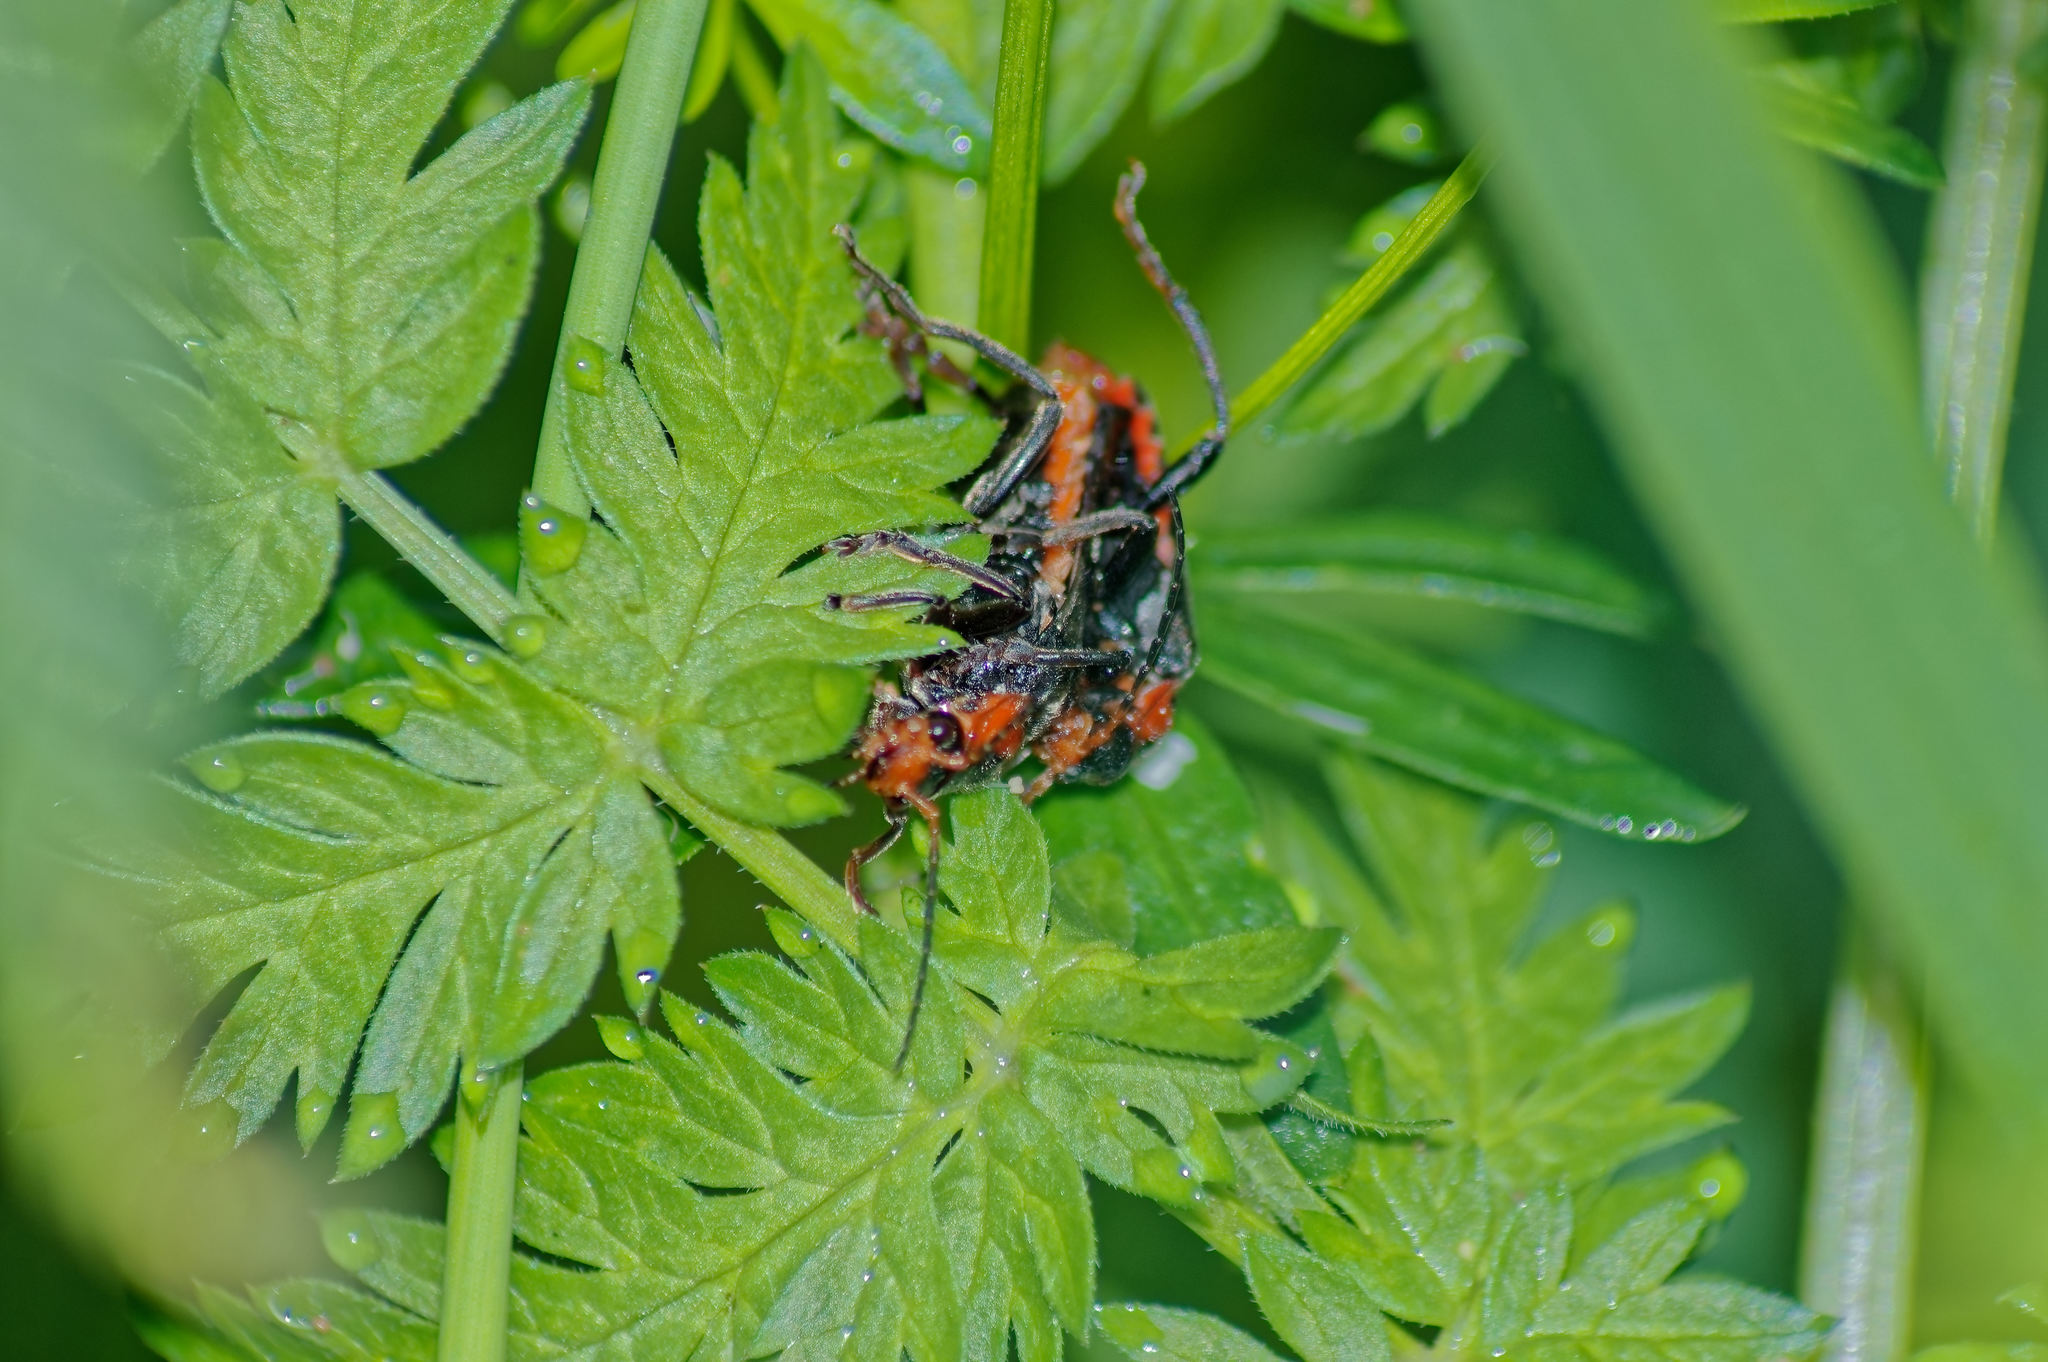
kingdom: Animalia
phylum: Arthropoda
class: Insecta
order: Coleoptera
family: Cantharidae
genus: Cantharis
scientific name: Cantharis fusca
